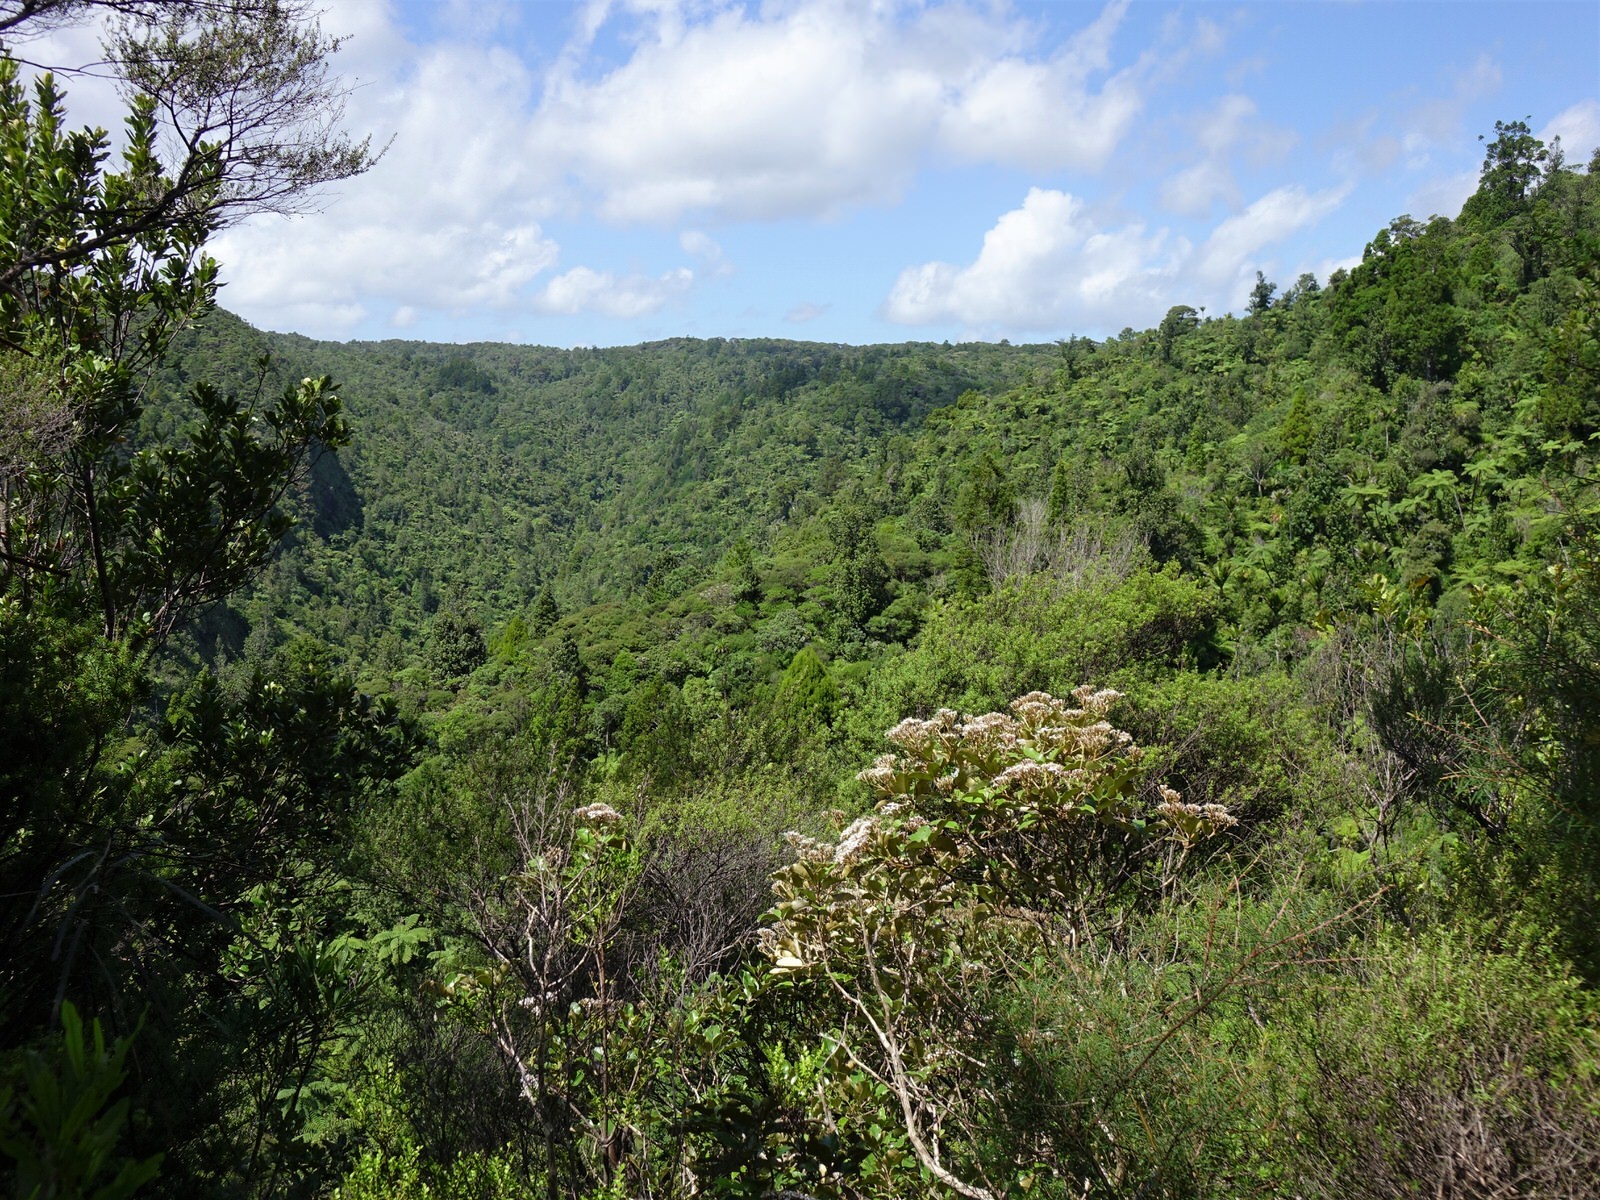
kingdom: Plantae
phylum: Tracheophyta
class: Magnoliopsida
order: Ericales
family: Ericaceae
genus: Dracophyllum
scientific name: Dracophyllum latifolium
